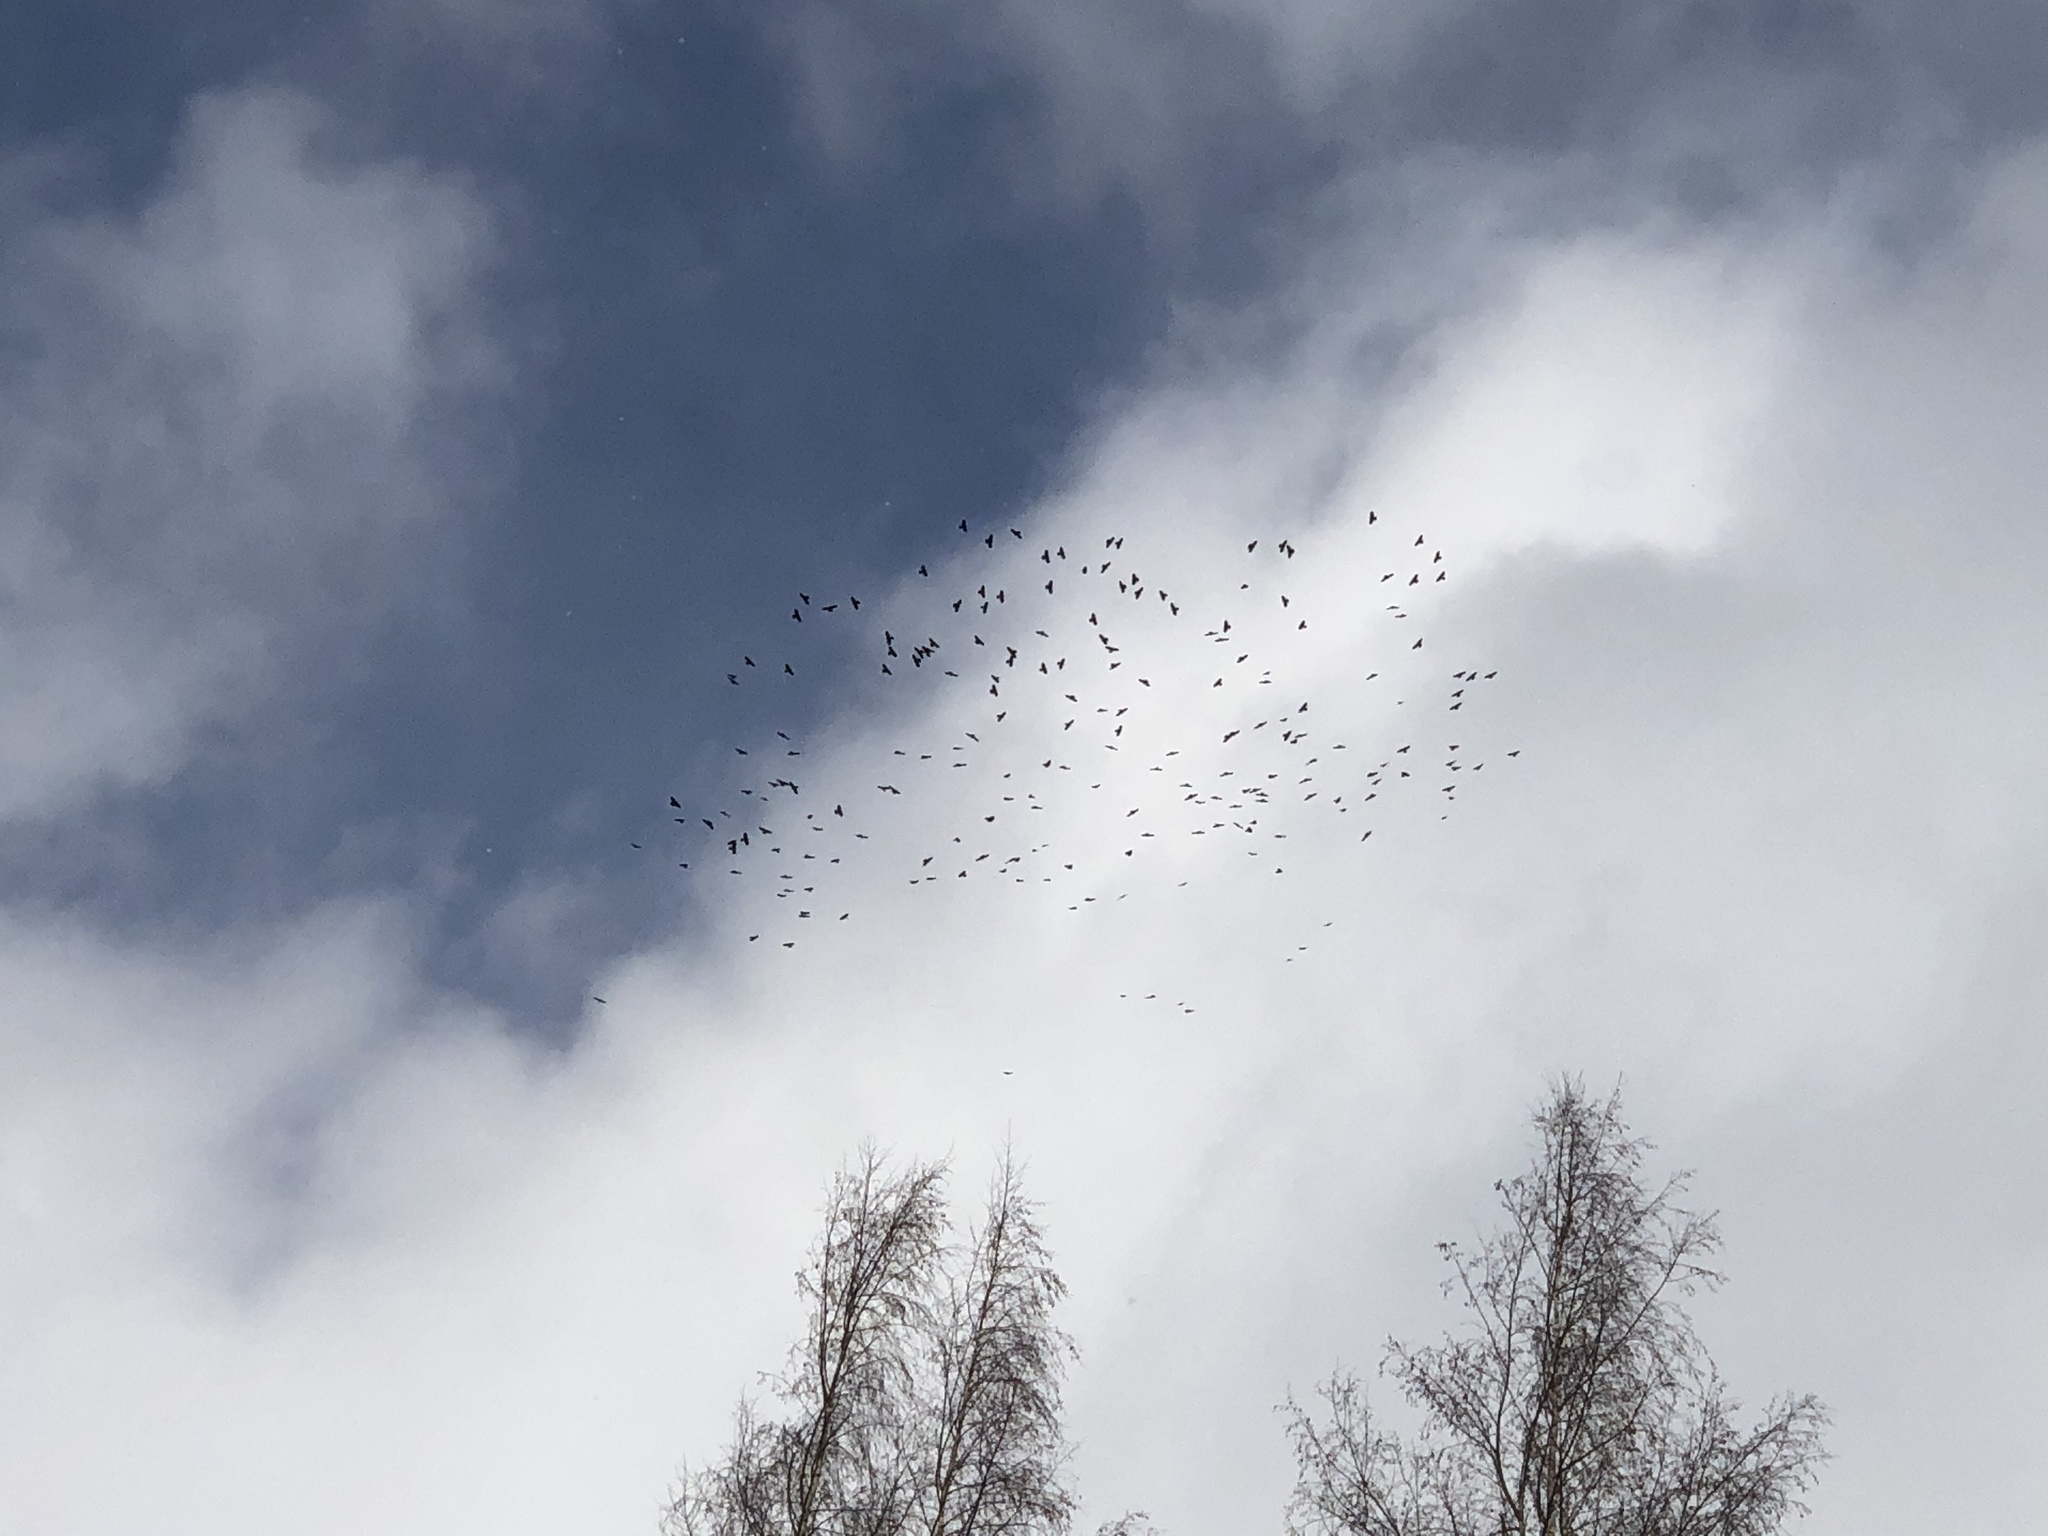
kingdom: Animalia
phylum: Chordata
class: Aves
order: Passeriformes
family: Corvidae
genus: Pyrrhocorax
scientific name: Pyrrhocorax graculus
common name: Alpine chough
